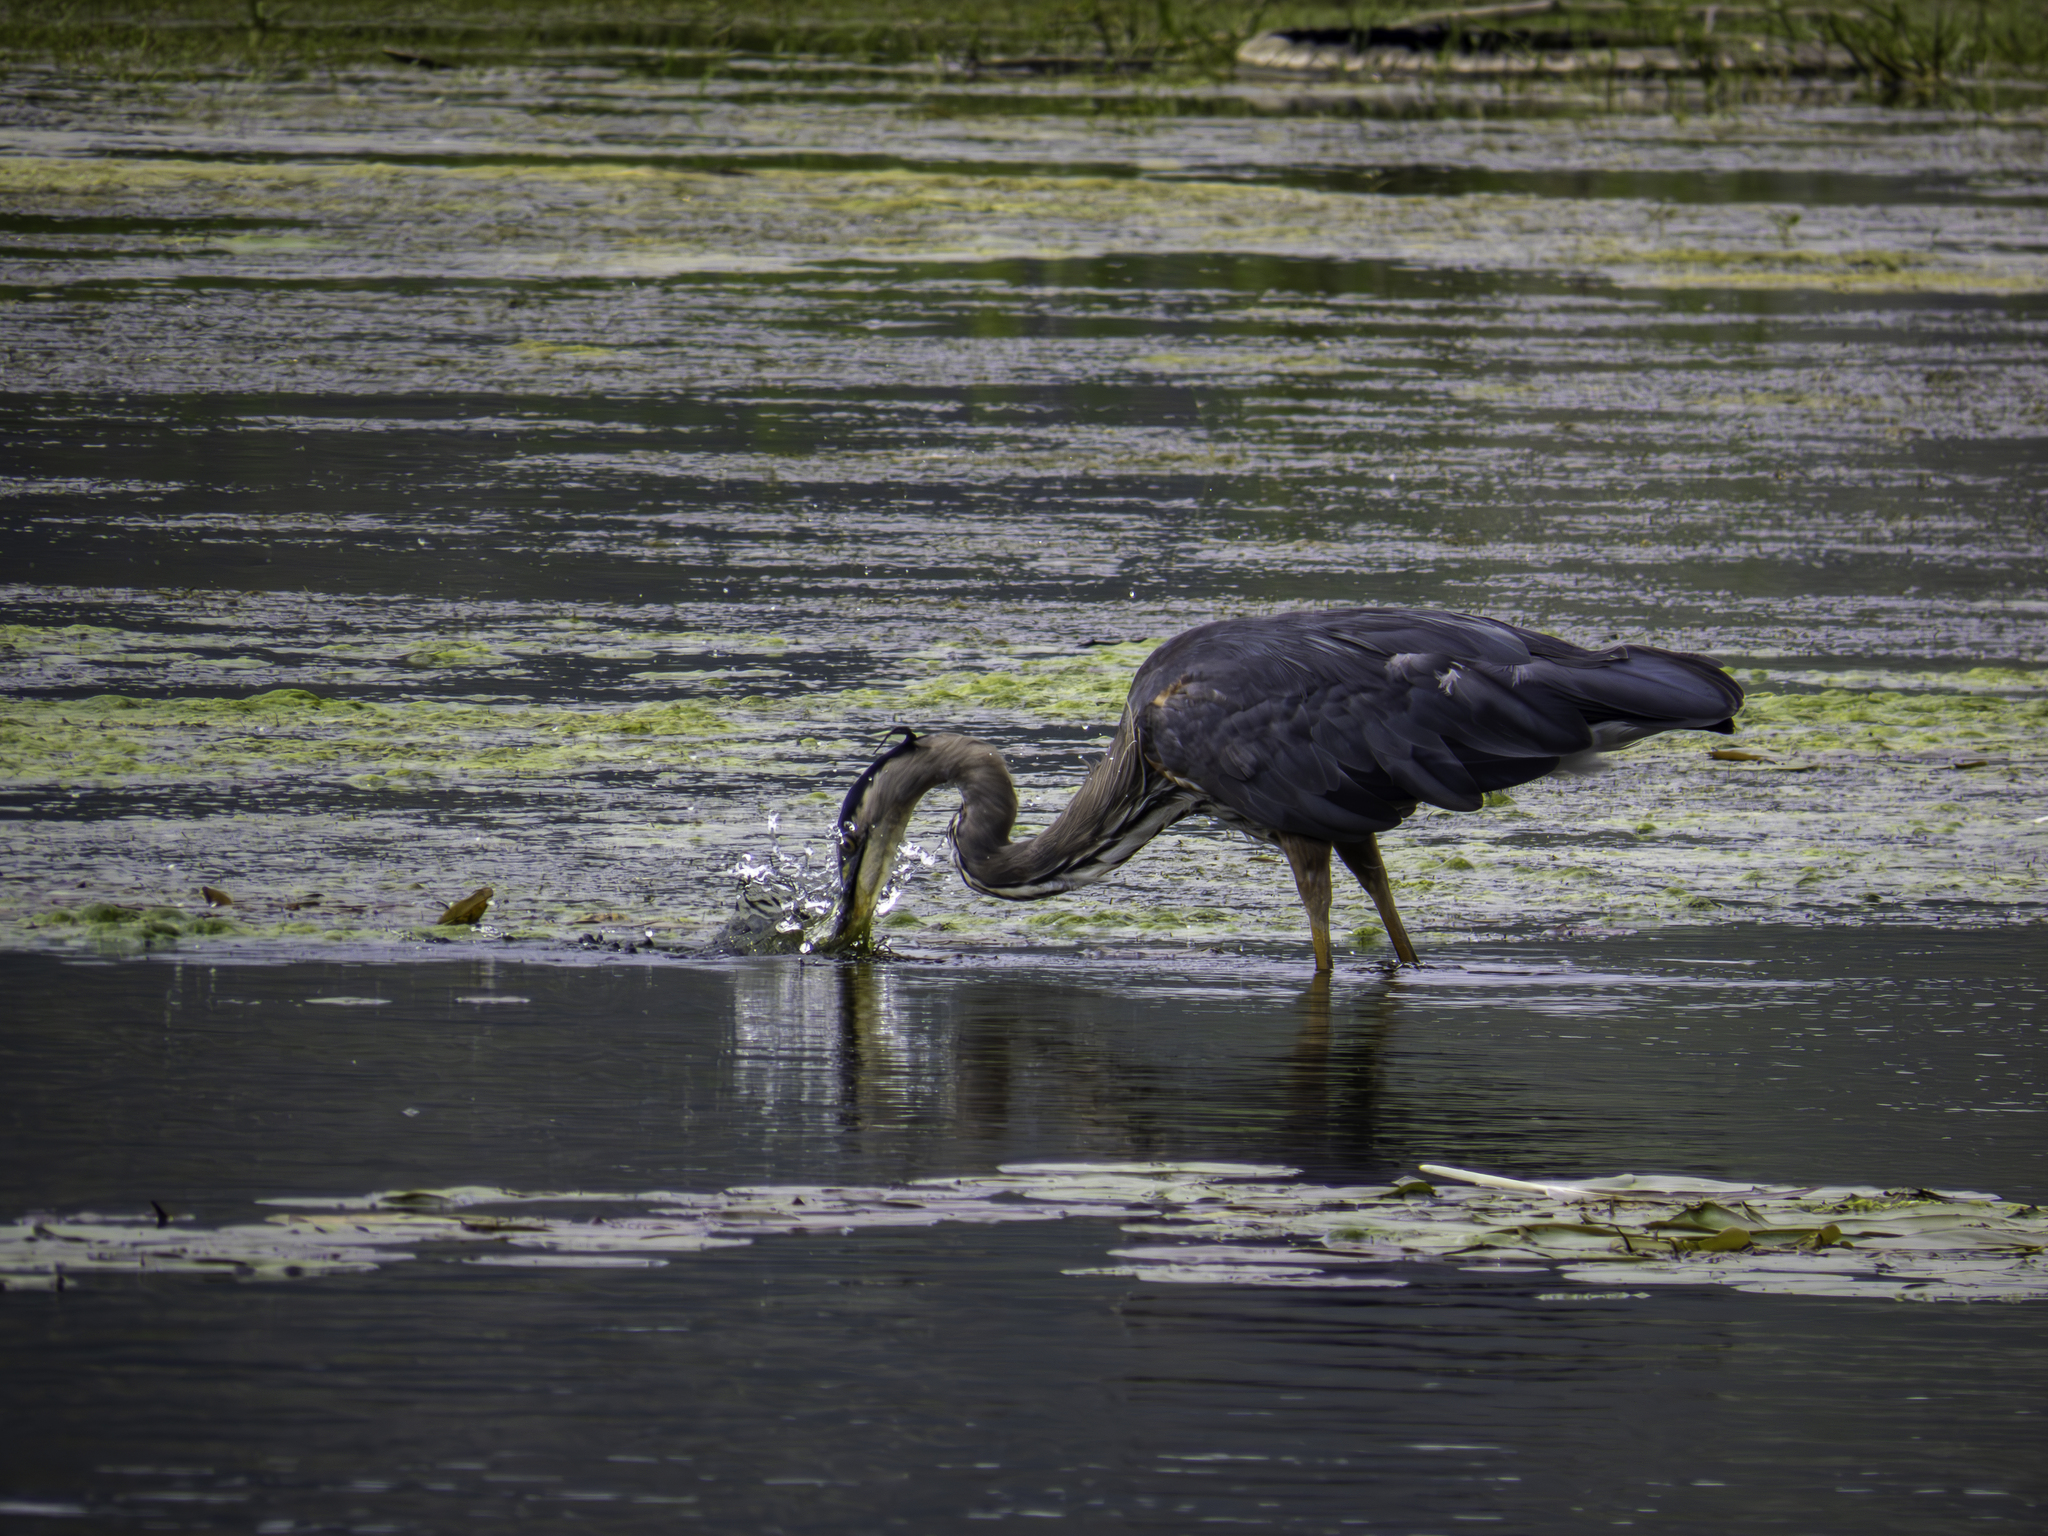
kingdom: Animalia
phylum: Chordata
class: Aves
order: Pelecaniformes
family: Ardeidae
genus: Ardea
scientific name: Ardea herodias
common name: Great blue heron
